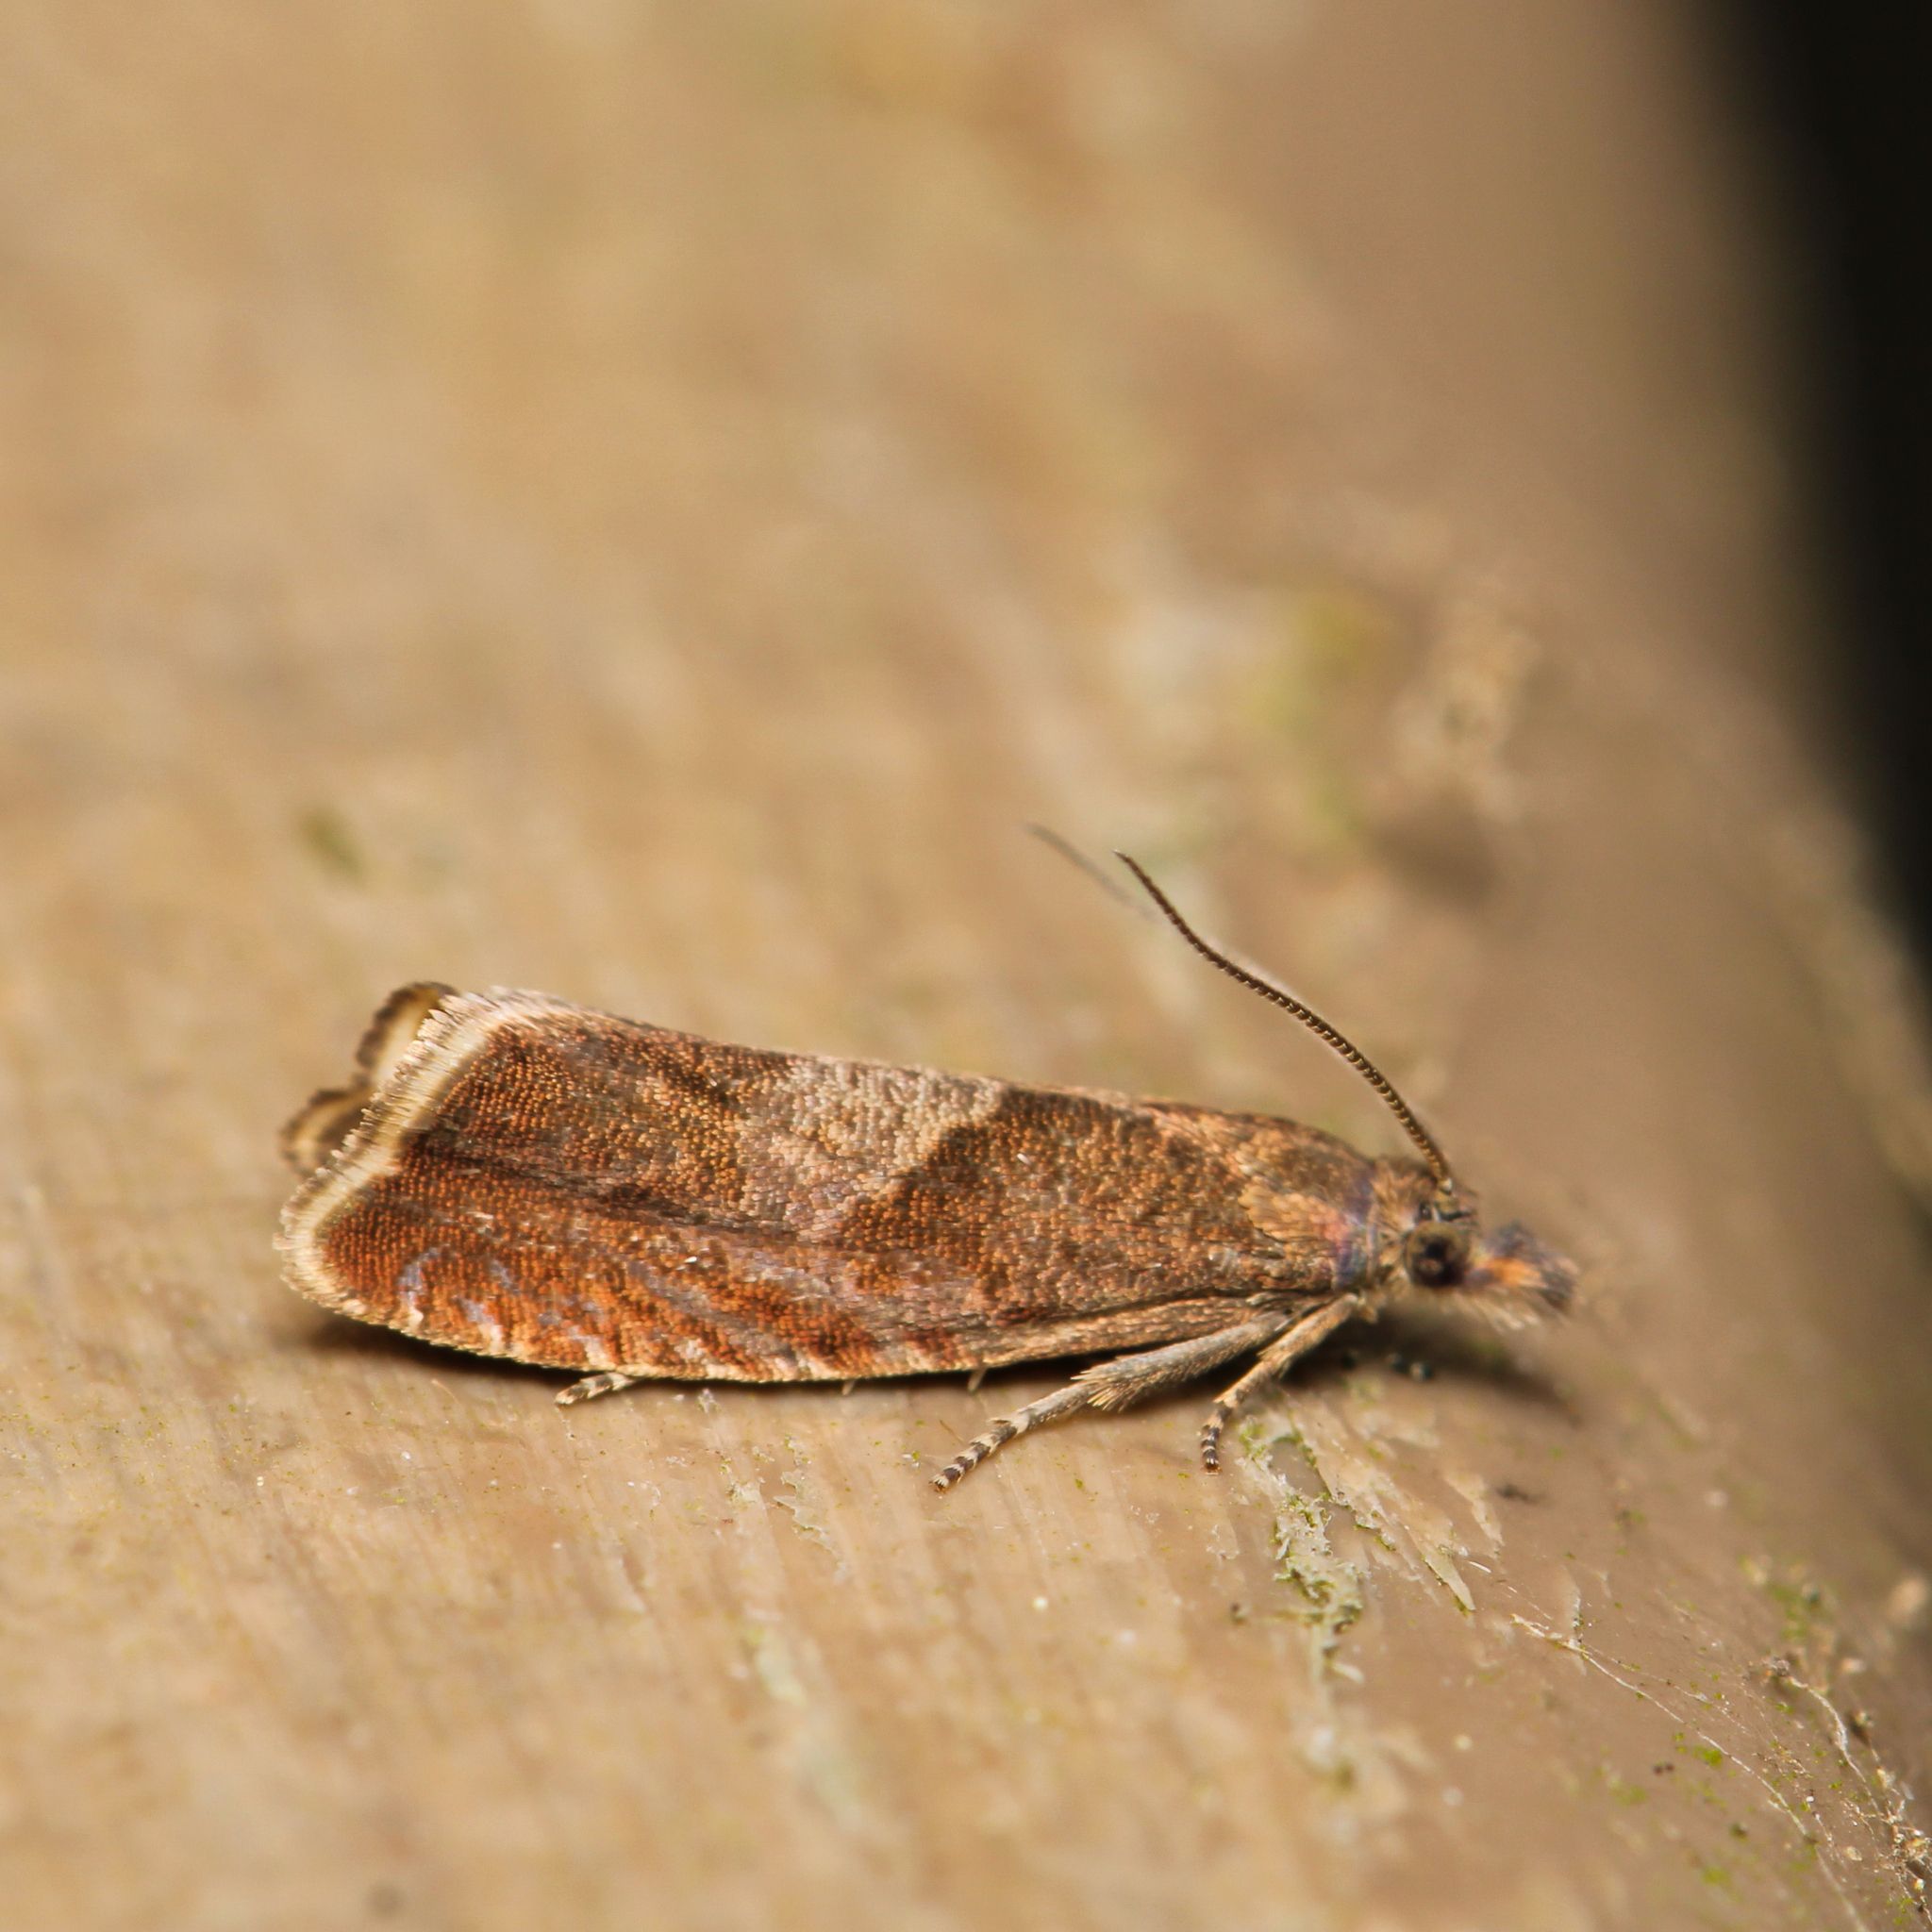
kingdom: Animalia
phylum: Arthropoda
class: Insecta
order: Lepidoptera
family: Tortricidae
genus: Dichrorampha
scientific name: Dichrorampha acuminatana
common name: Sharp-winged drill
